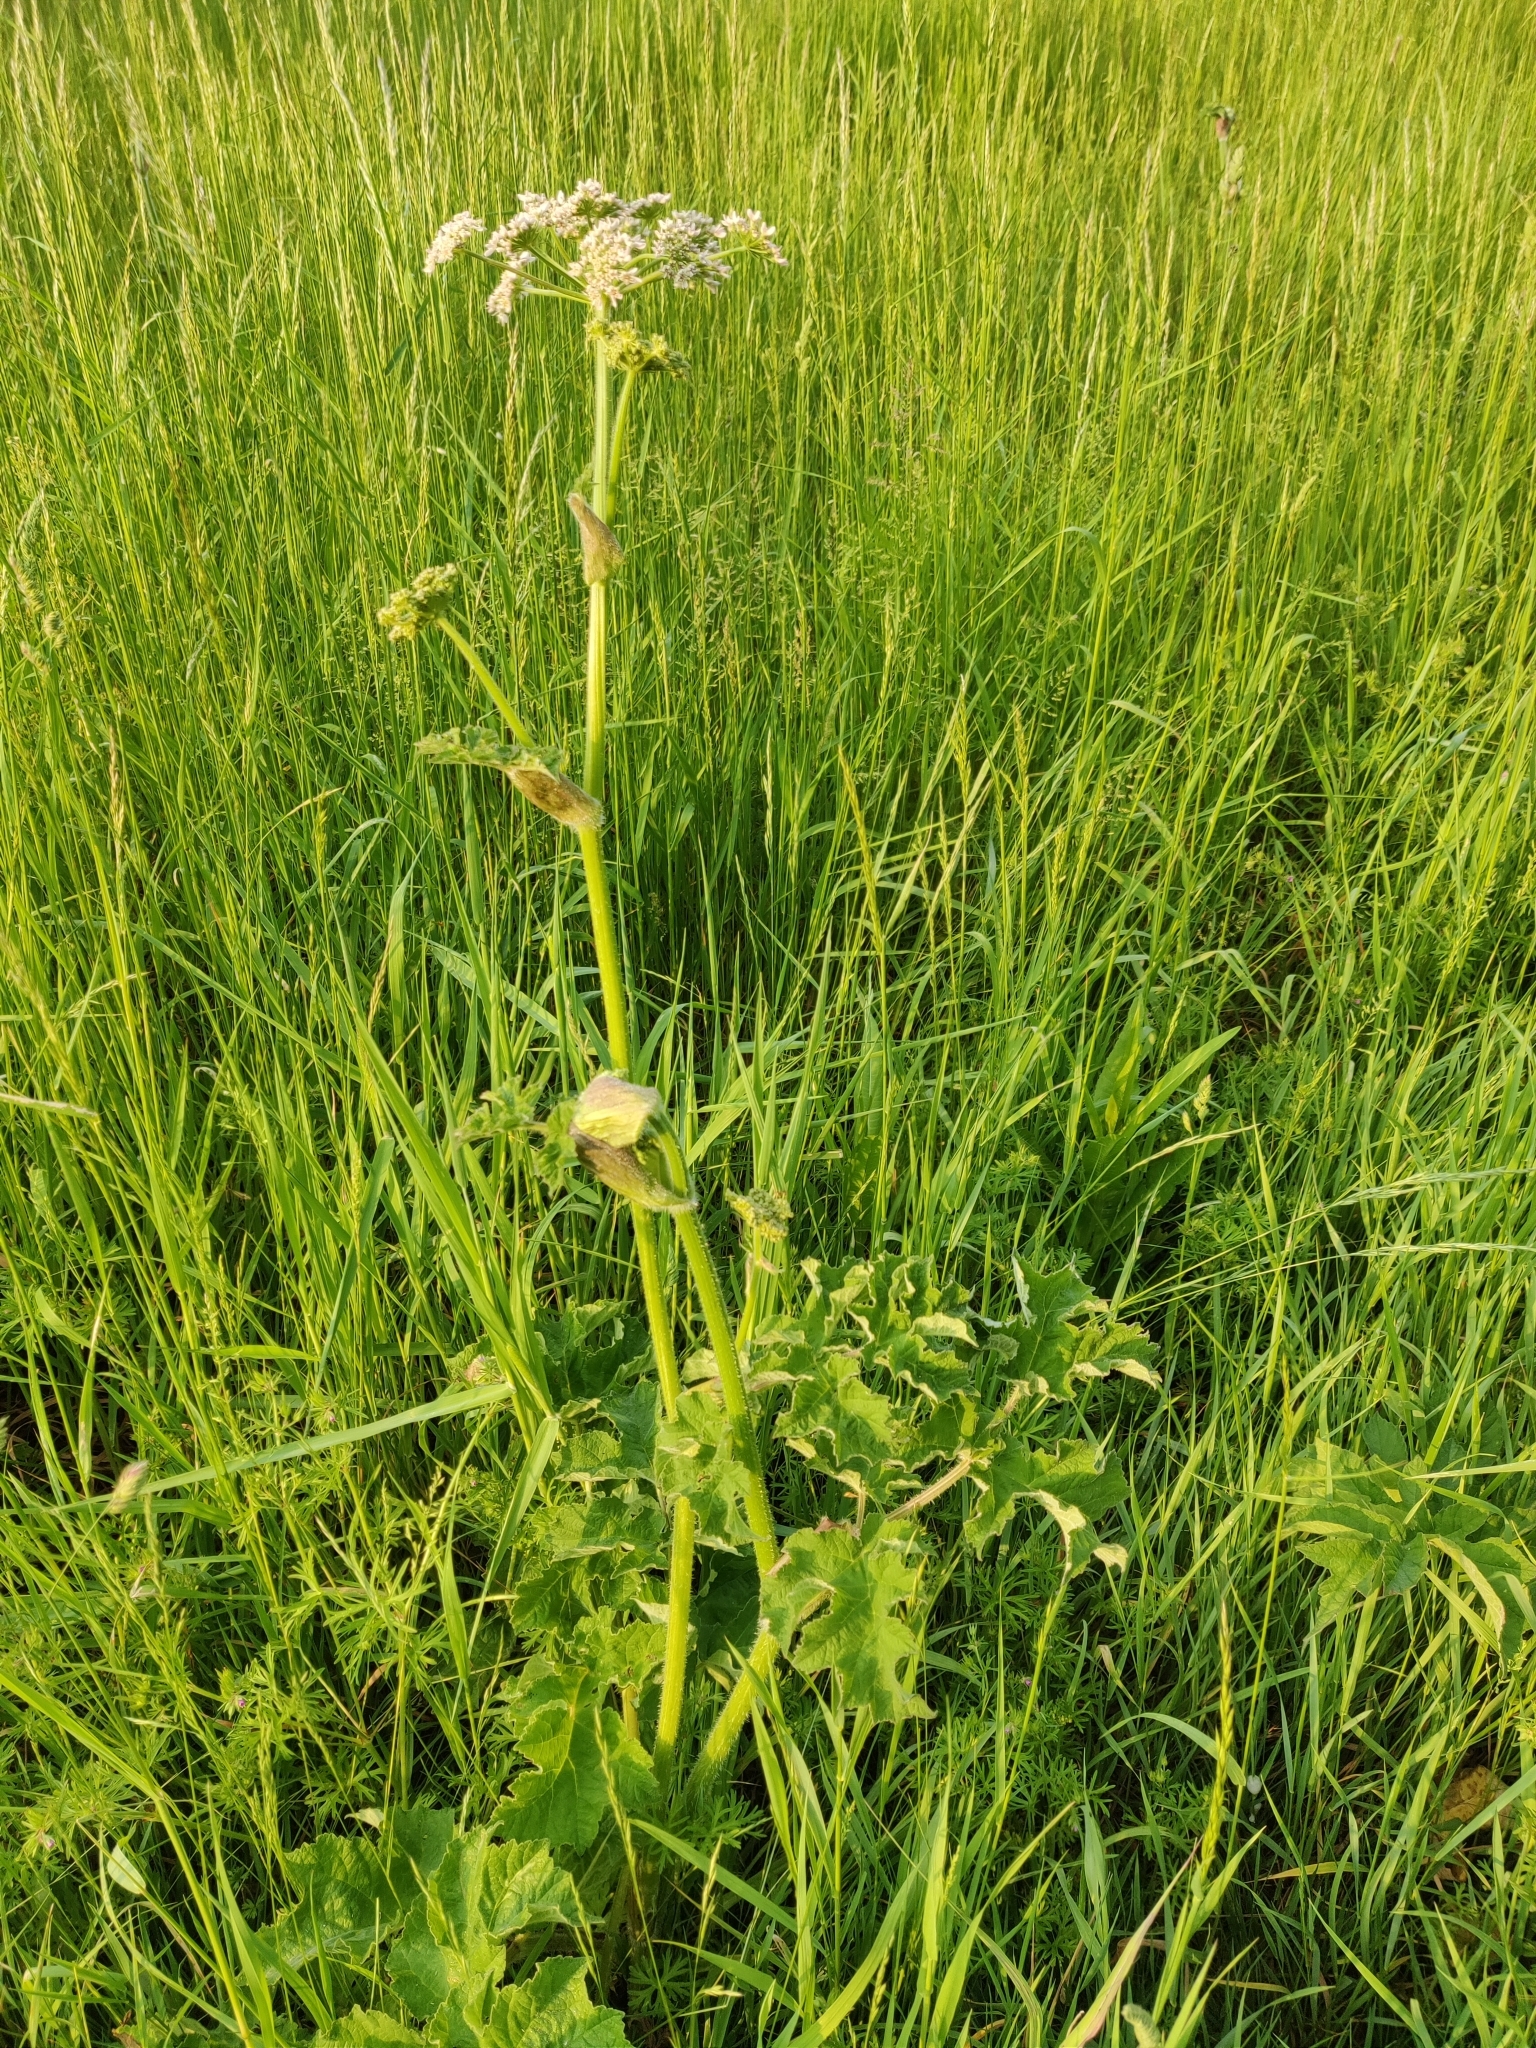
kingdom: Plantae
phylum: Tracheophyta
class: Magnoliopsida
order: Apiales
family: Apiaceae
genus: Heracleum
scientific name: Heracleum sphondylium
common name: Hogweed
